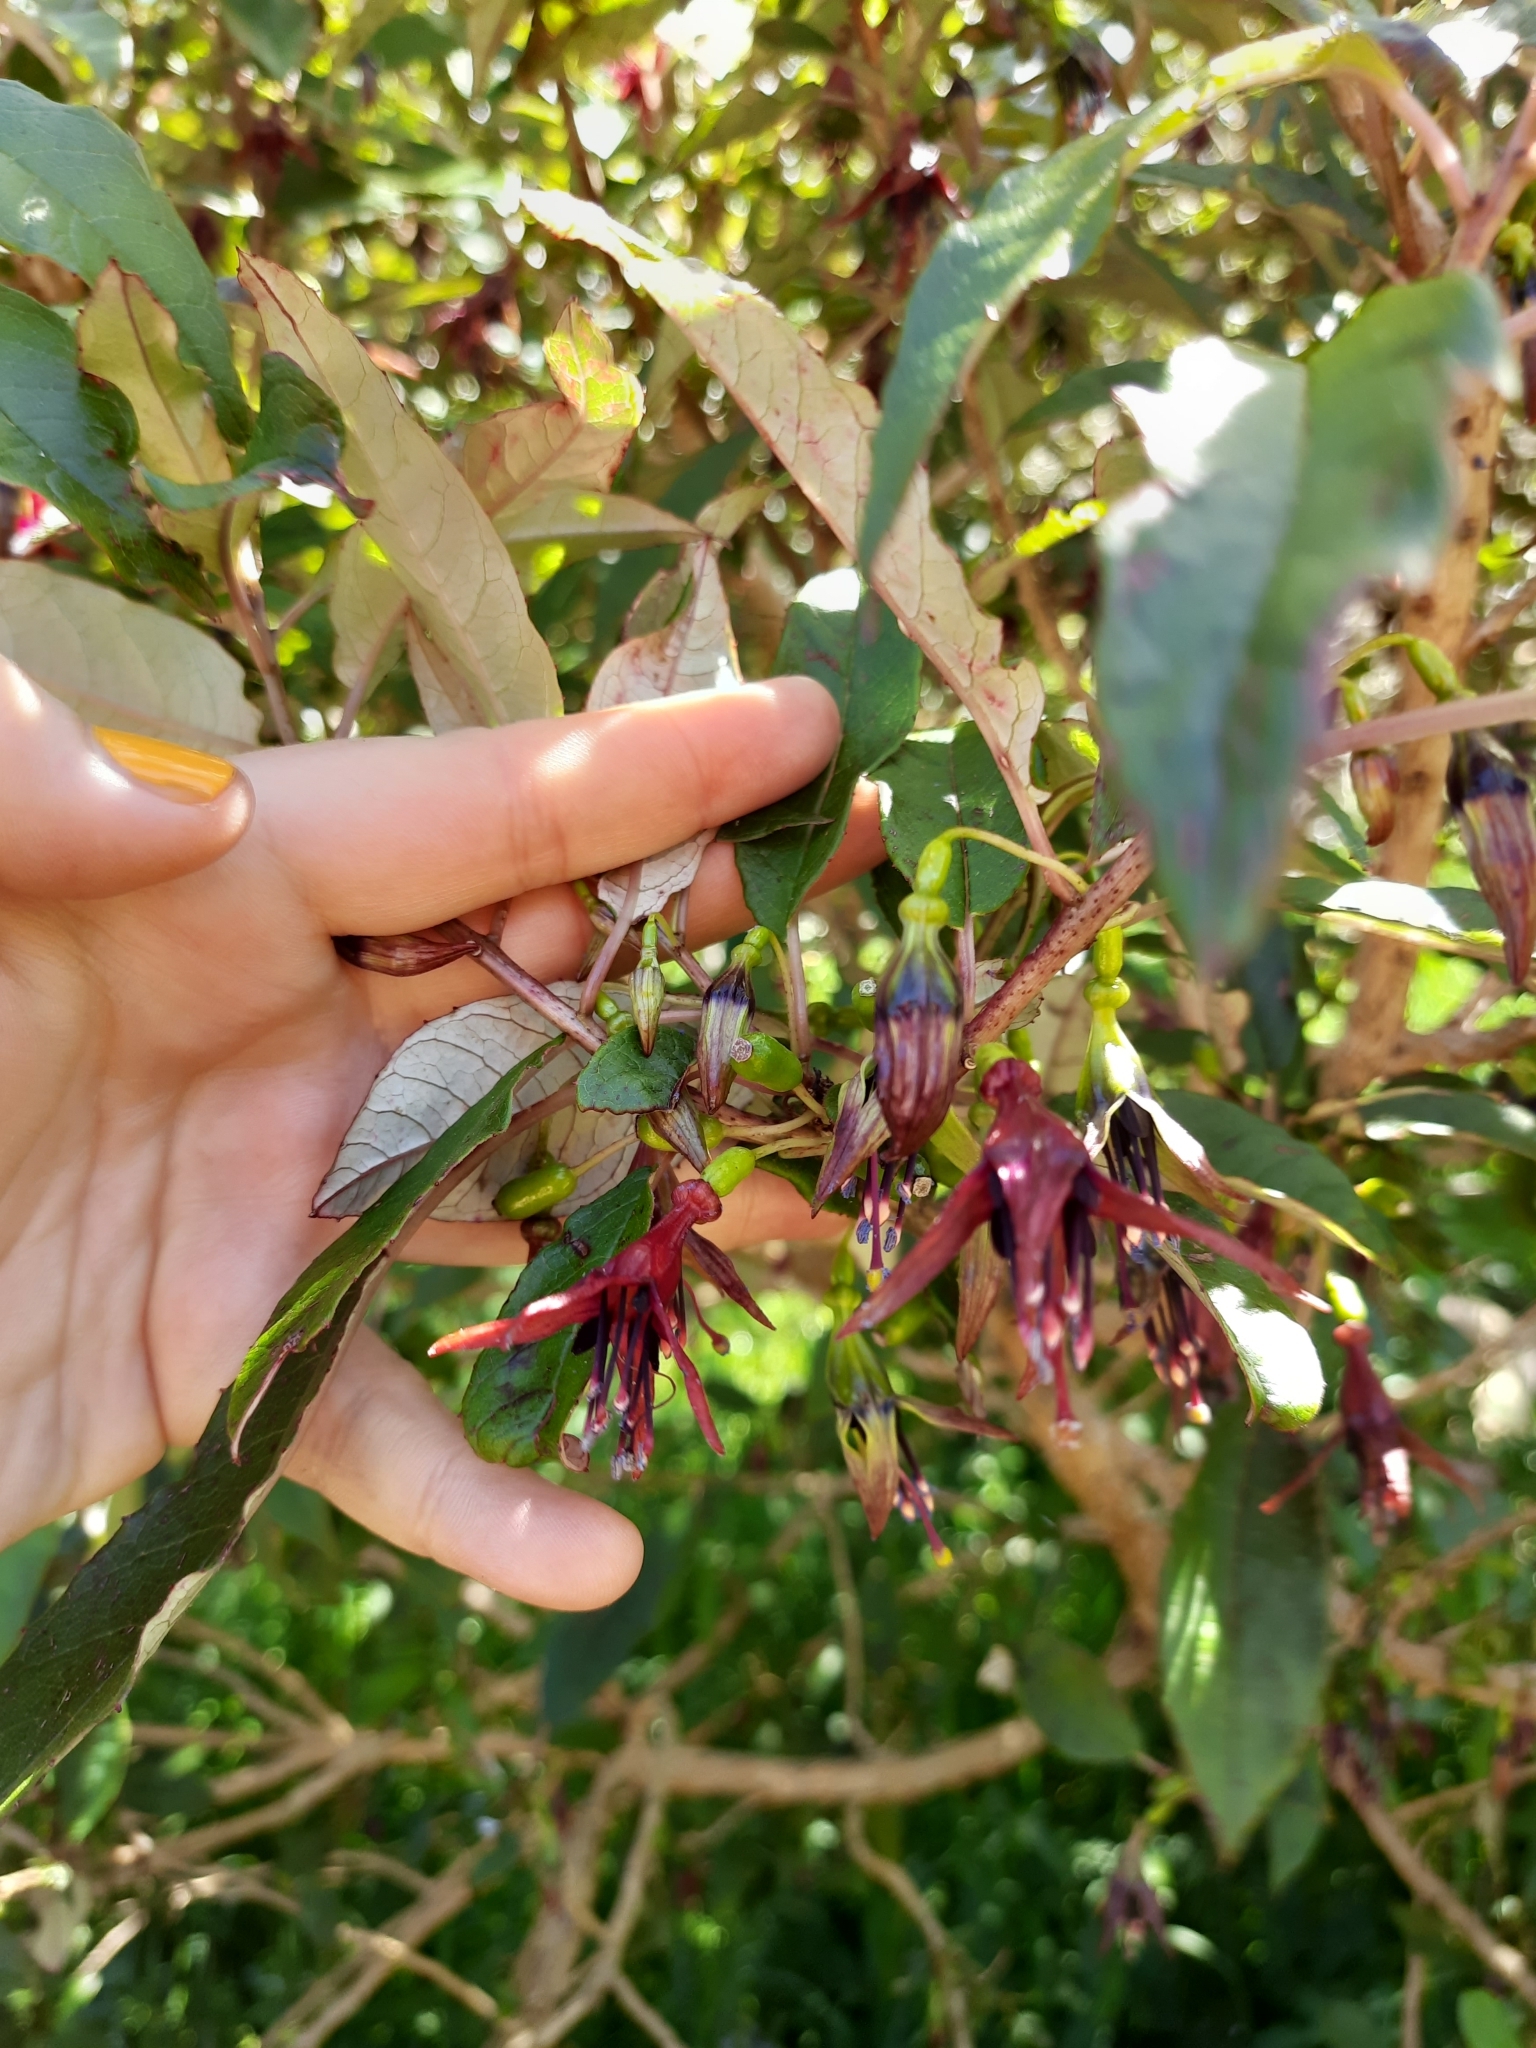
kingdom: Plantae
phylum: Tracheophyta
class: Magnoliopsida
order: Myrtales
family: Onagraceae
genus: Fuchsia
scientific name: Fuchsia excorticata
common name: Tree fuchsia
